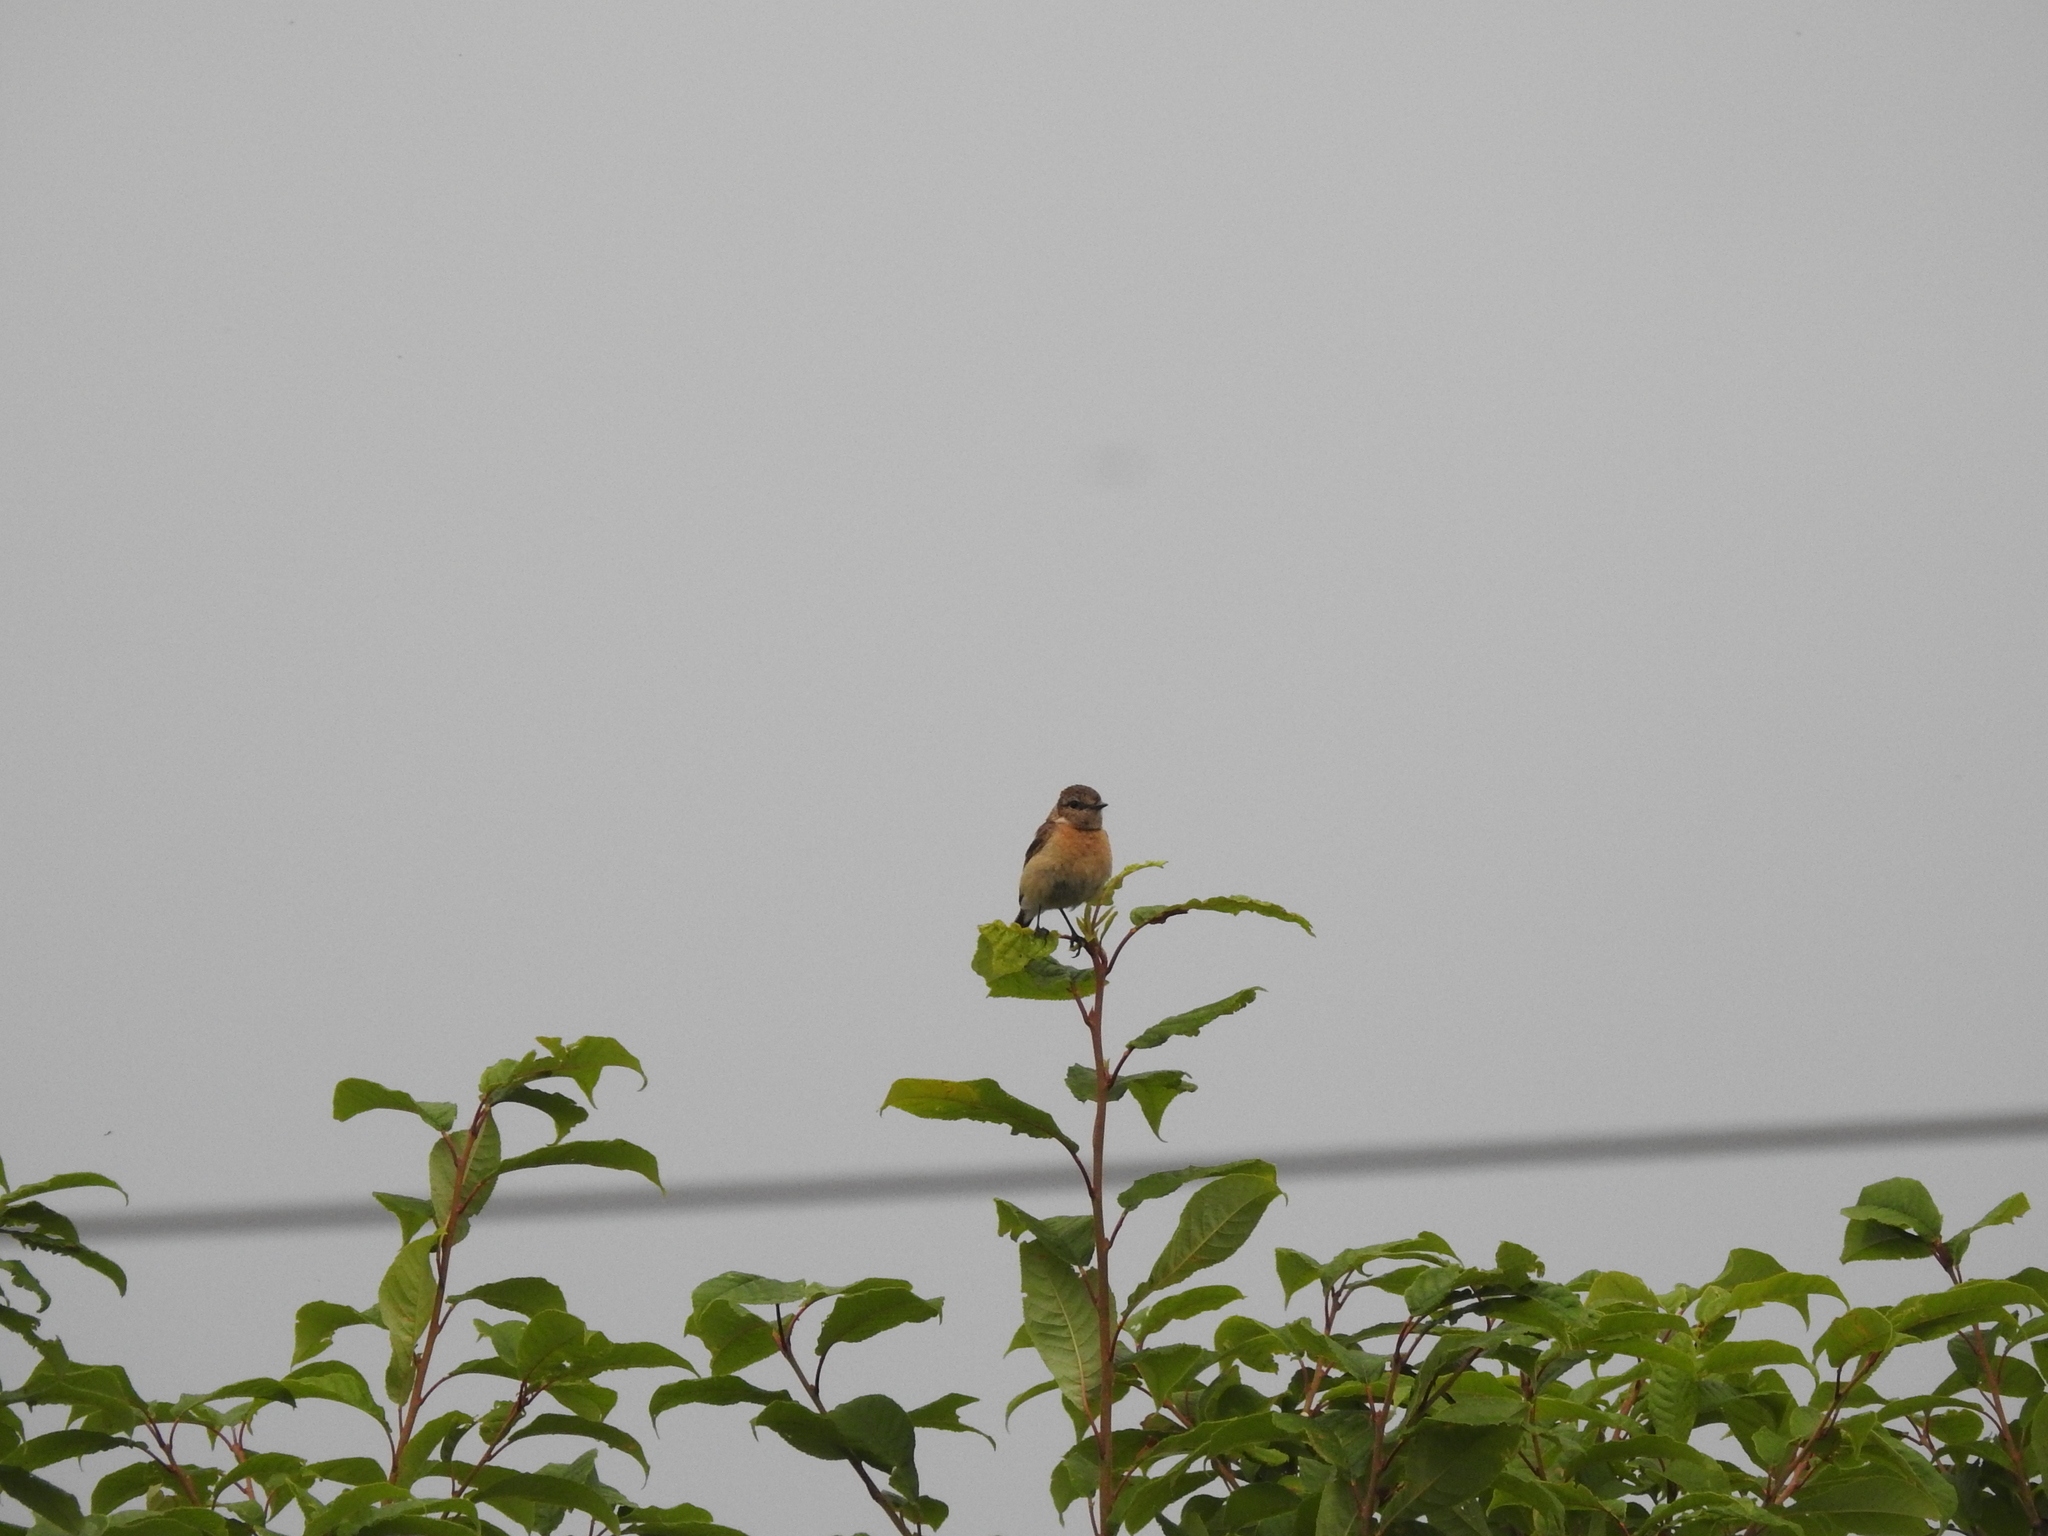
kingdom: Animalia
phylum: Chordata
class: Aves
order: Passeriformes
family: Muscicapidae
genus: Saxicola
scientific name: Saxicola maurus
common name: Siberian stonechat
